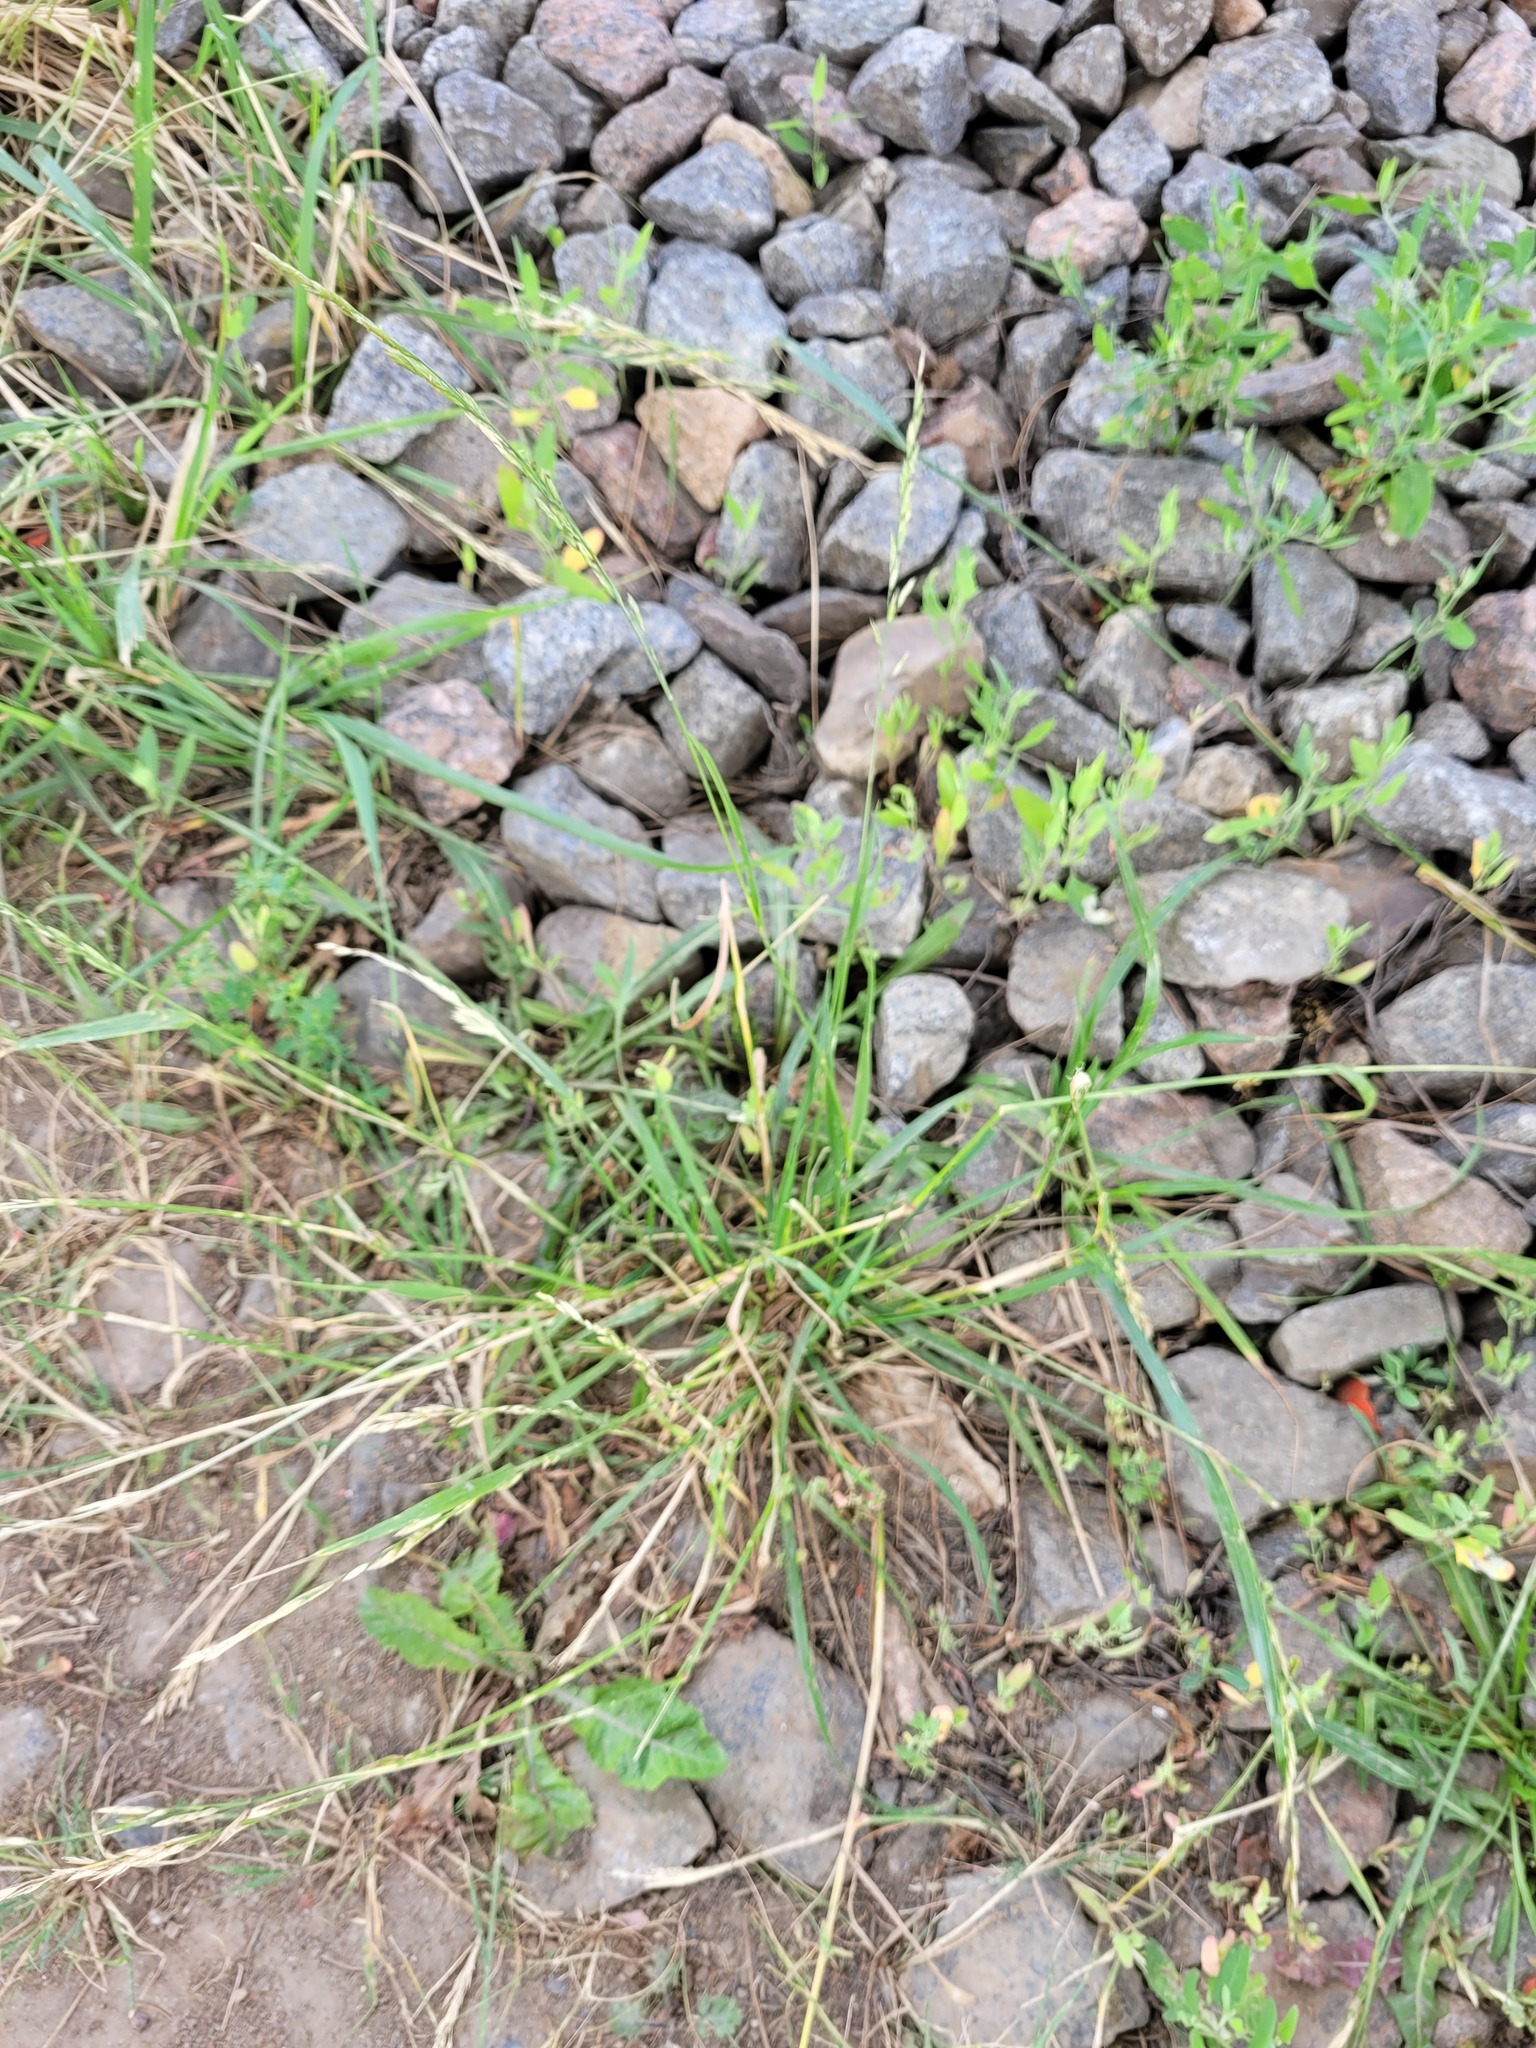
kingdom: Plantae
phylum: Tracheophyta
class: Liliopsida
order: Poales
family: Poaceae
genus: Lolium
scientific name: Lolium pratense
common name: Dover grass
